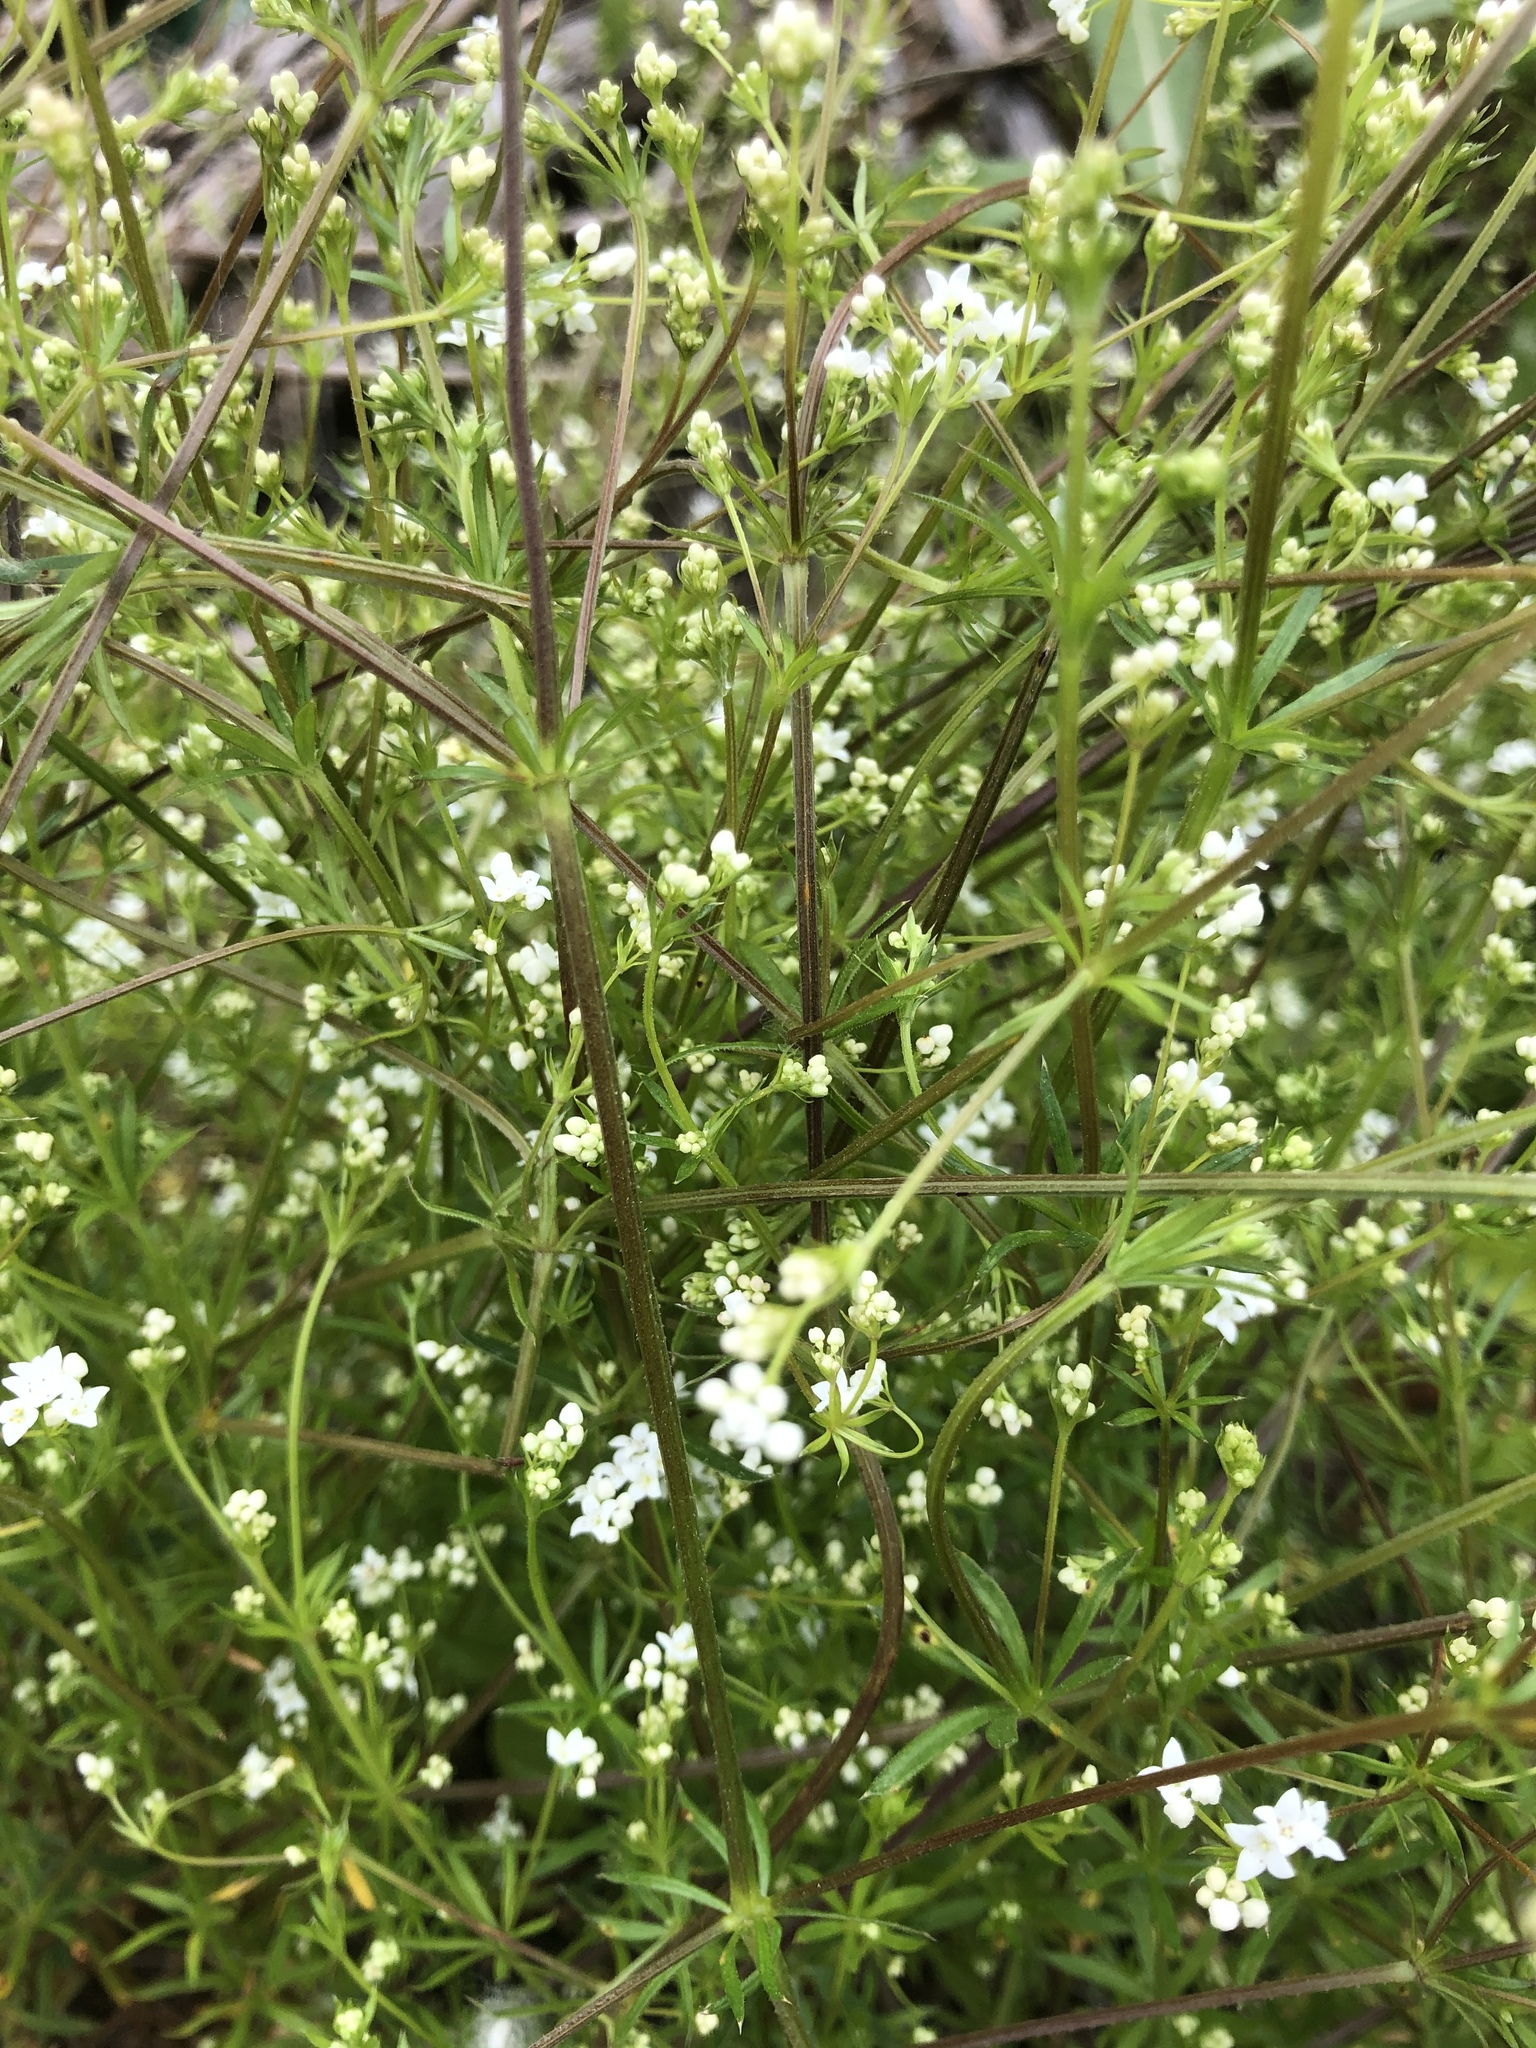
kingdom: Plantae
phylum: Tracheophyta
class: Magnoliopsida
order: Gentianales
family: Rubiaceae
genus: Galium
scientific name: Galium uliginosum
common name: Fen bedstraw
